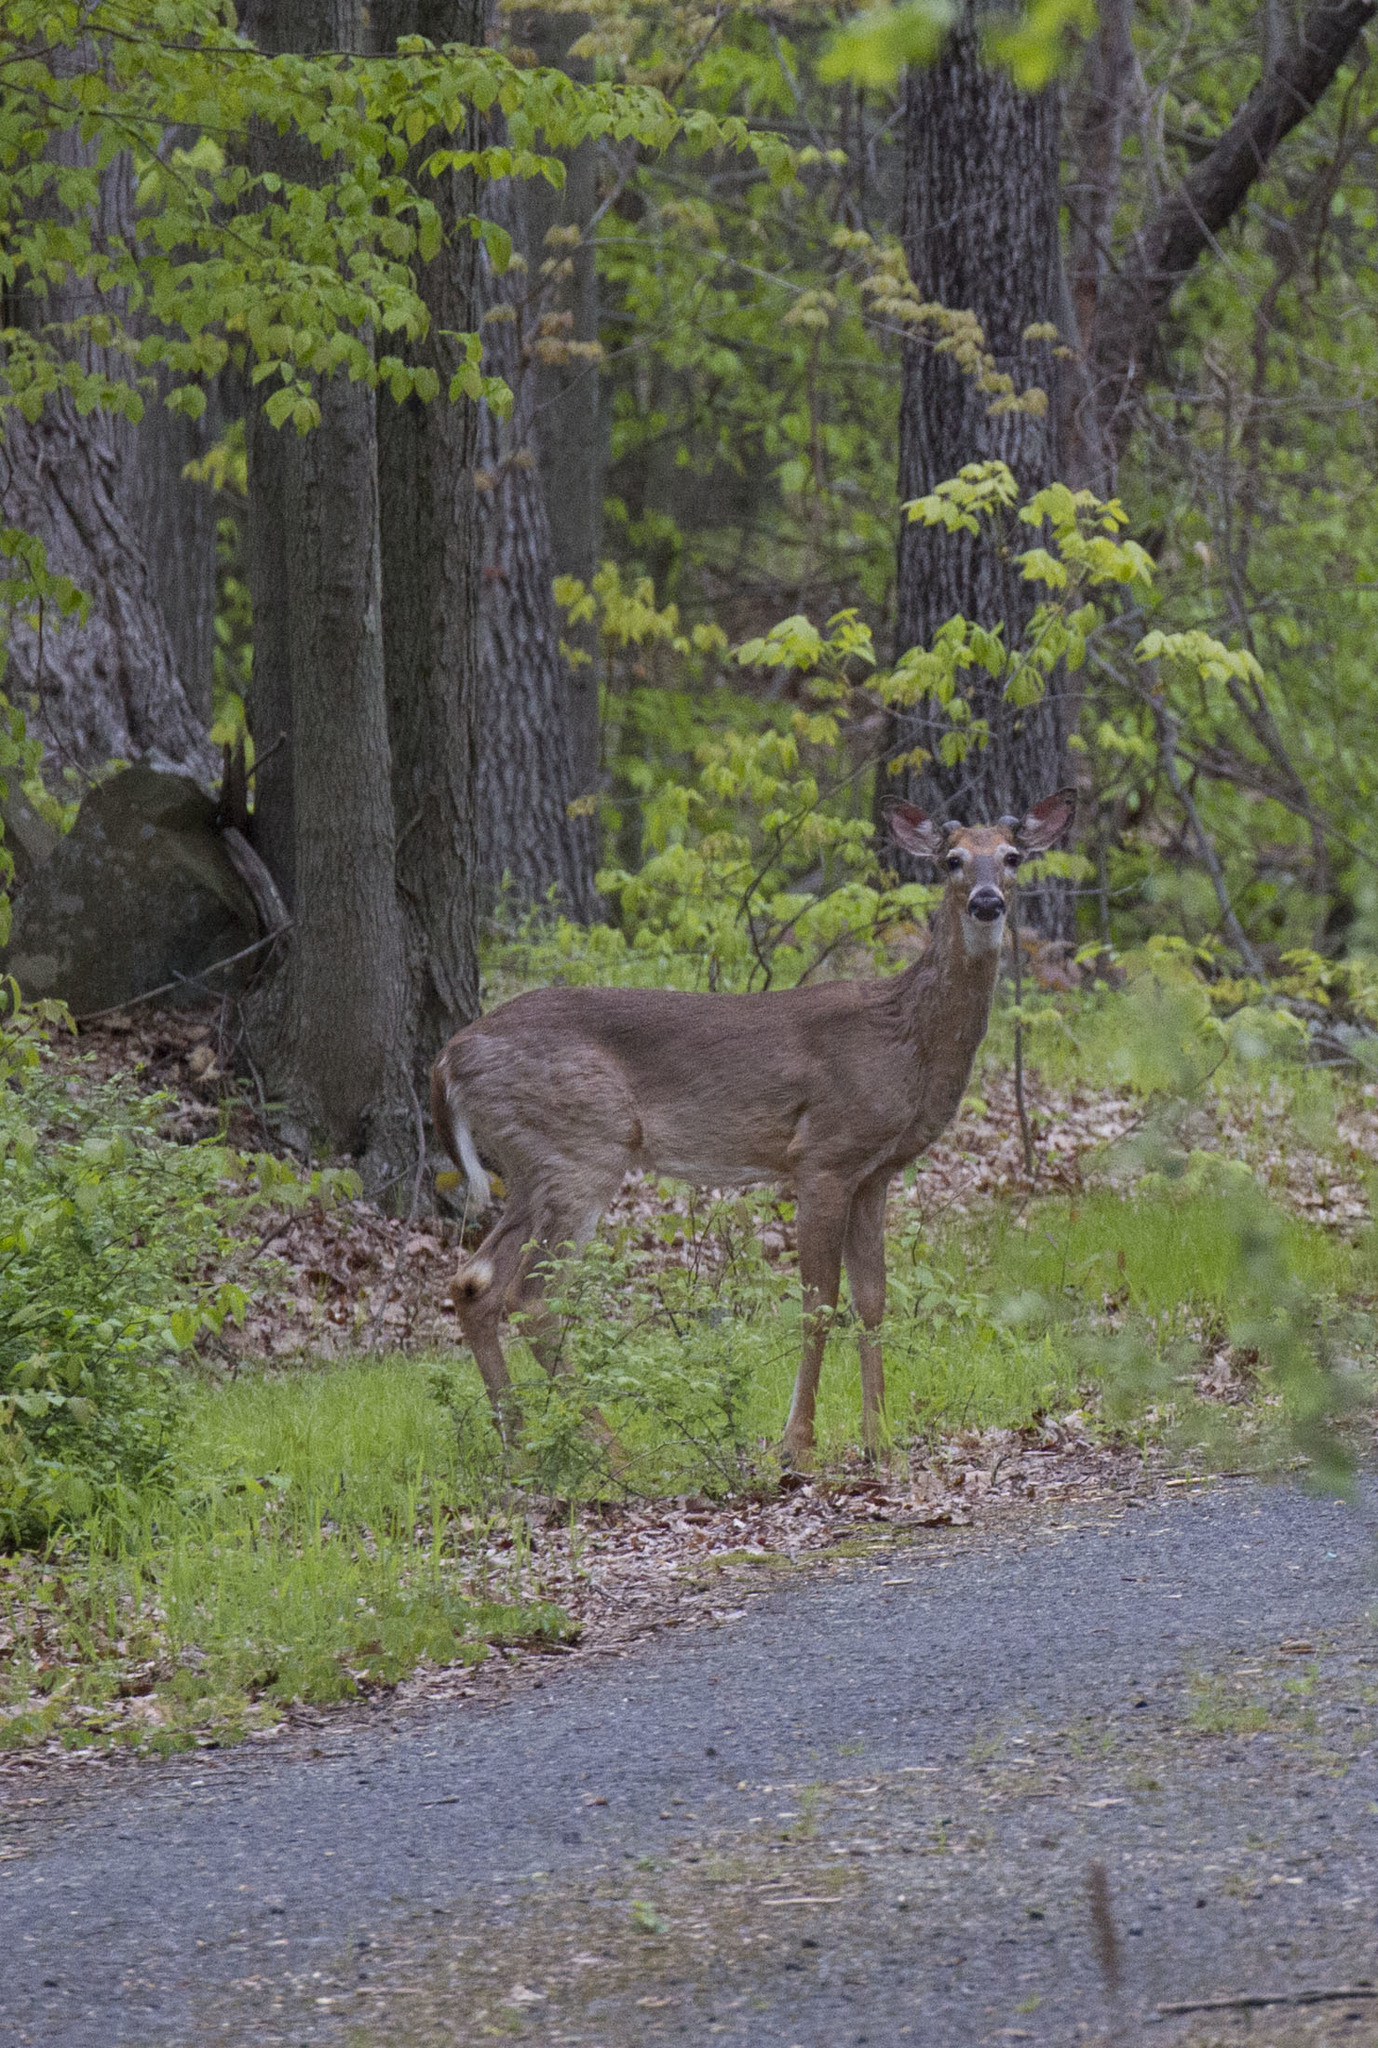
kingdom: Animalia
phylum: Chordata
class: Mammalia
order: Artiodactyla
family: Cervidae
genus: Odocoileus
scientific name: Odocoileus virginianus
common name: White-tailed deer
